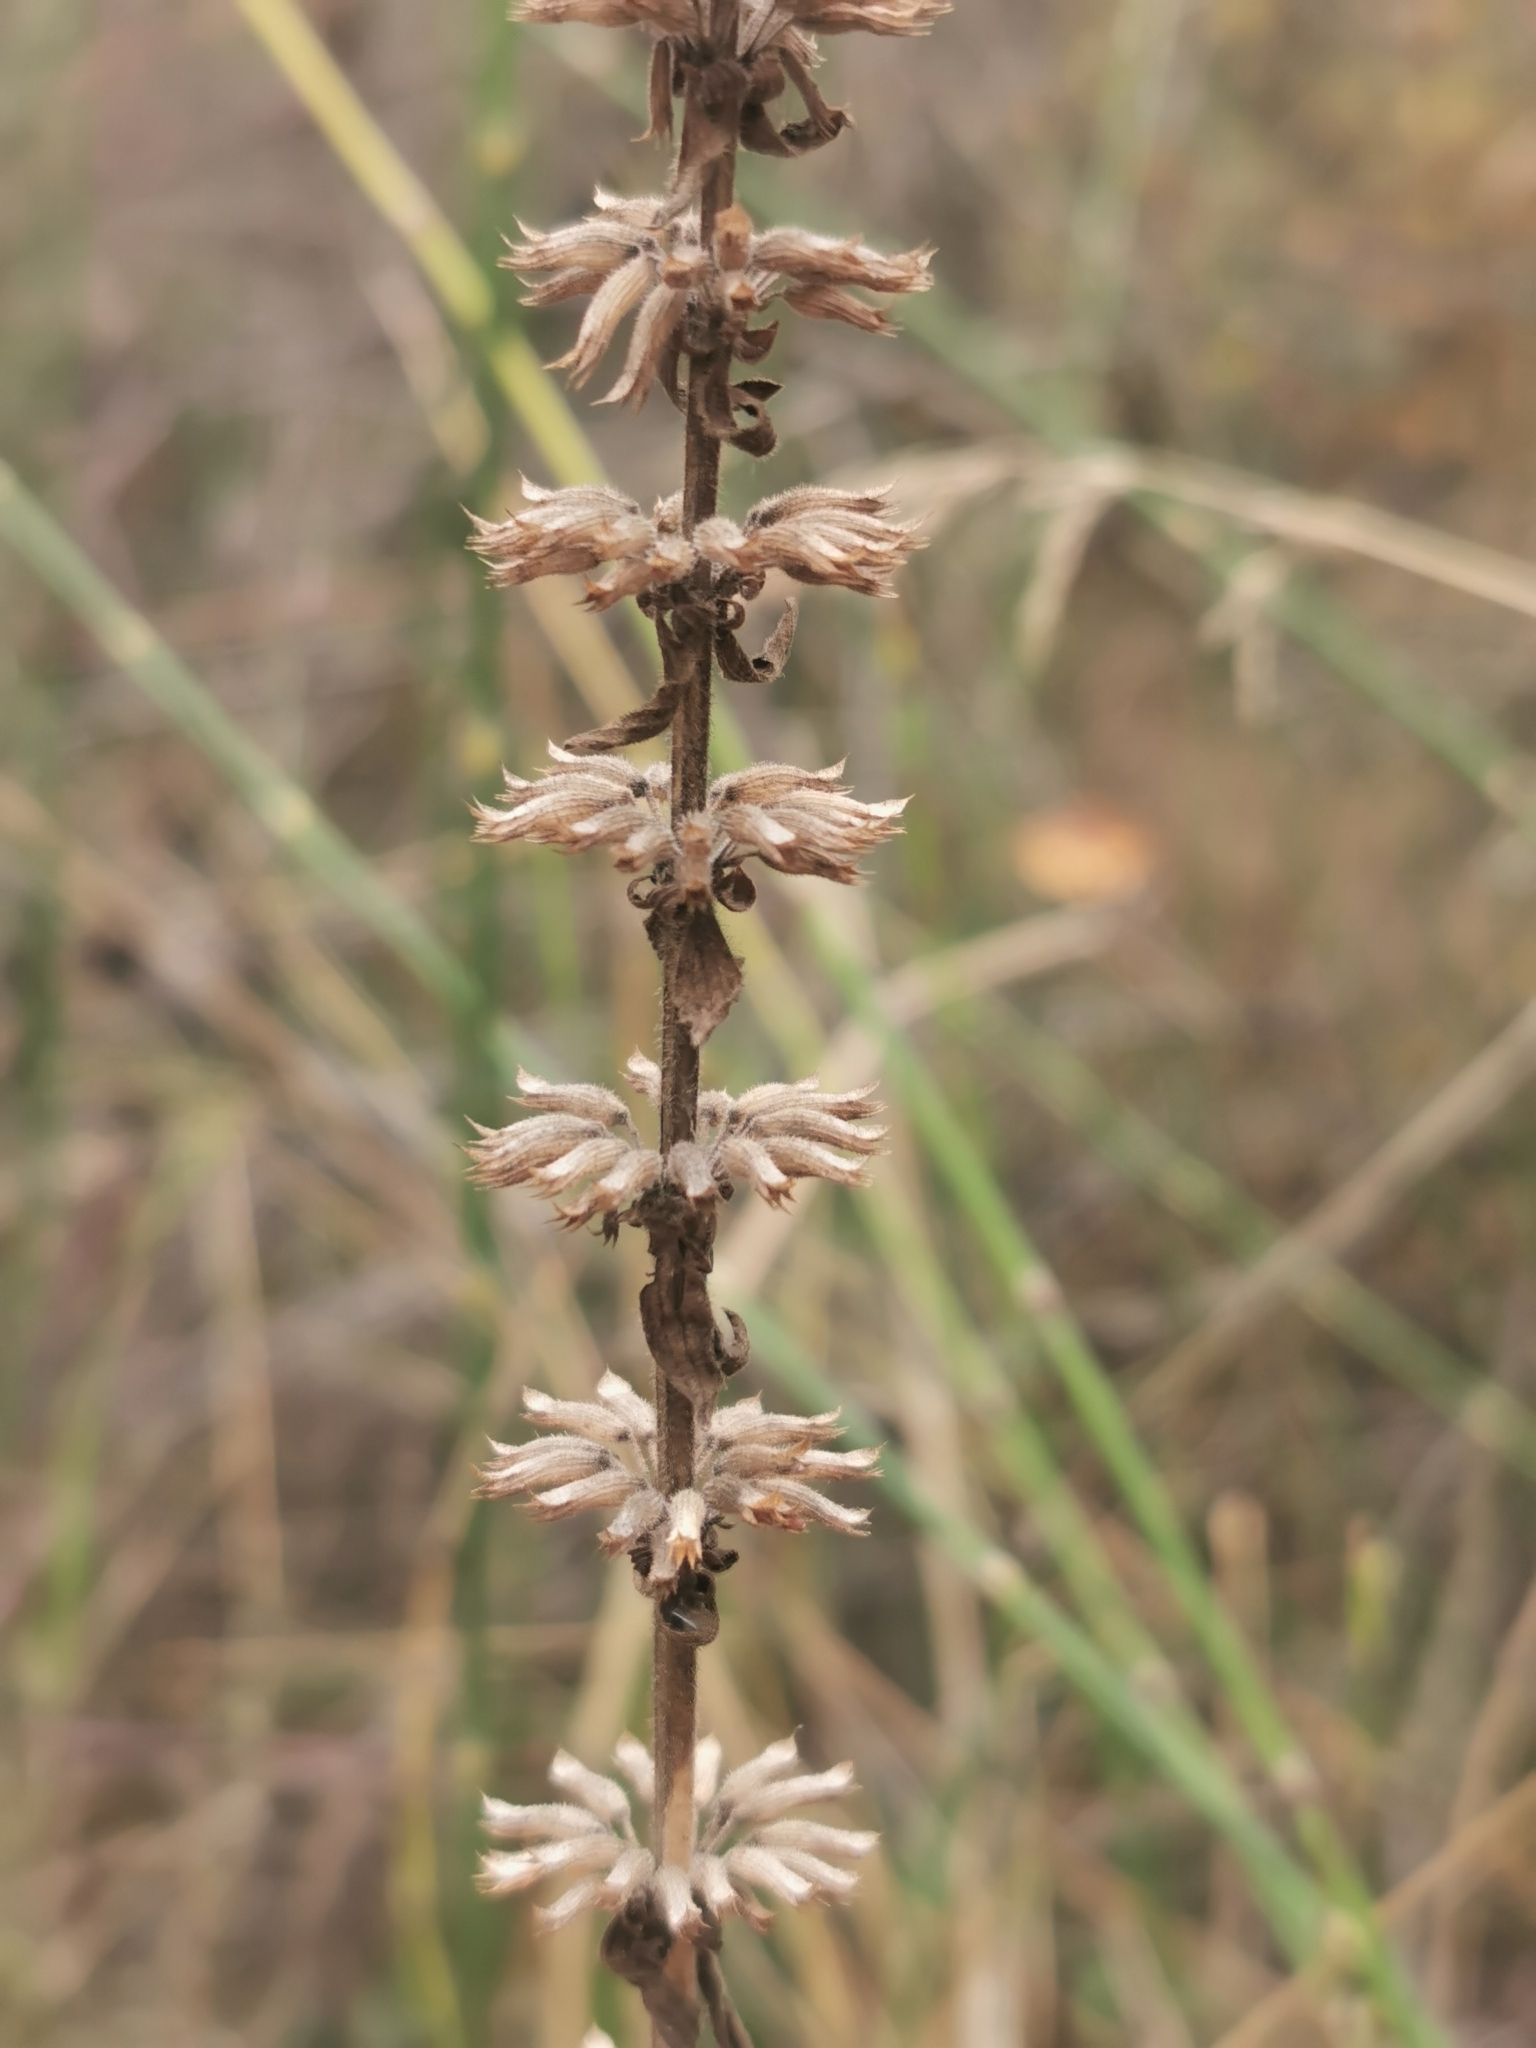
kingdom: Plantae
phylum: Tracheophyta
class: Magnoliopsida
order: Lamiales
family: Lamiaceae
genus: Dracocephalum
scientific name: Dracocephalum thymiflorum
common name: Thymeleaf dragonhead
